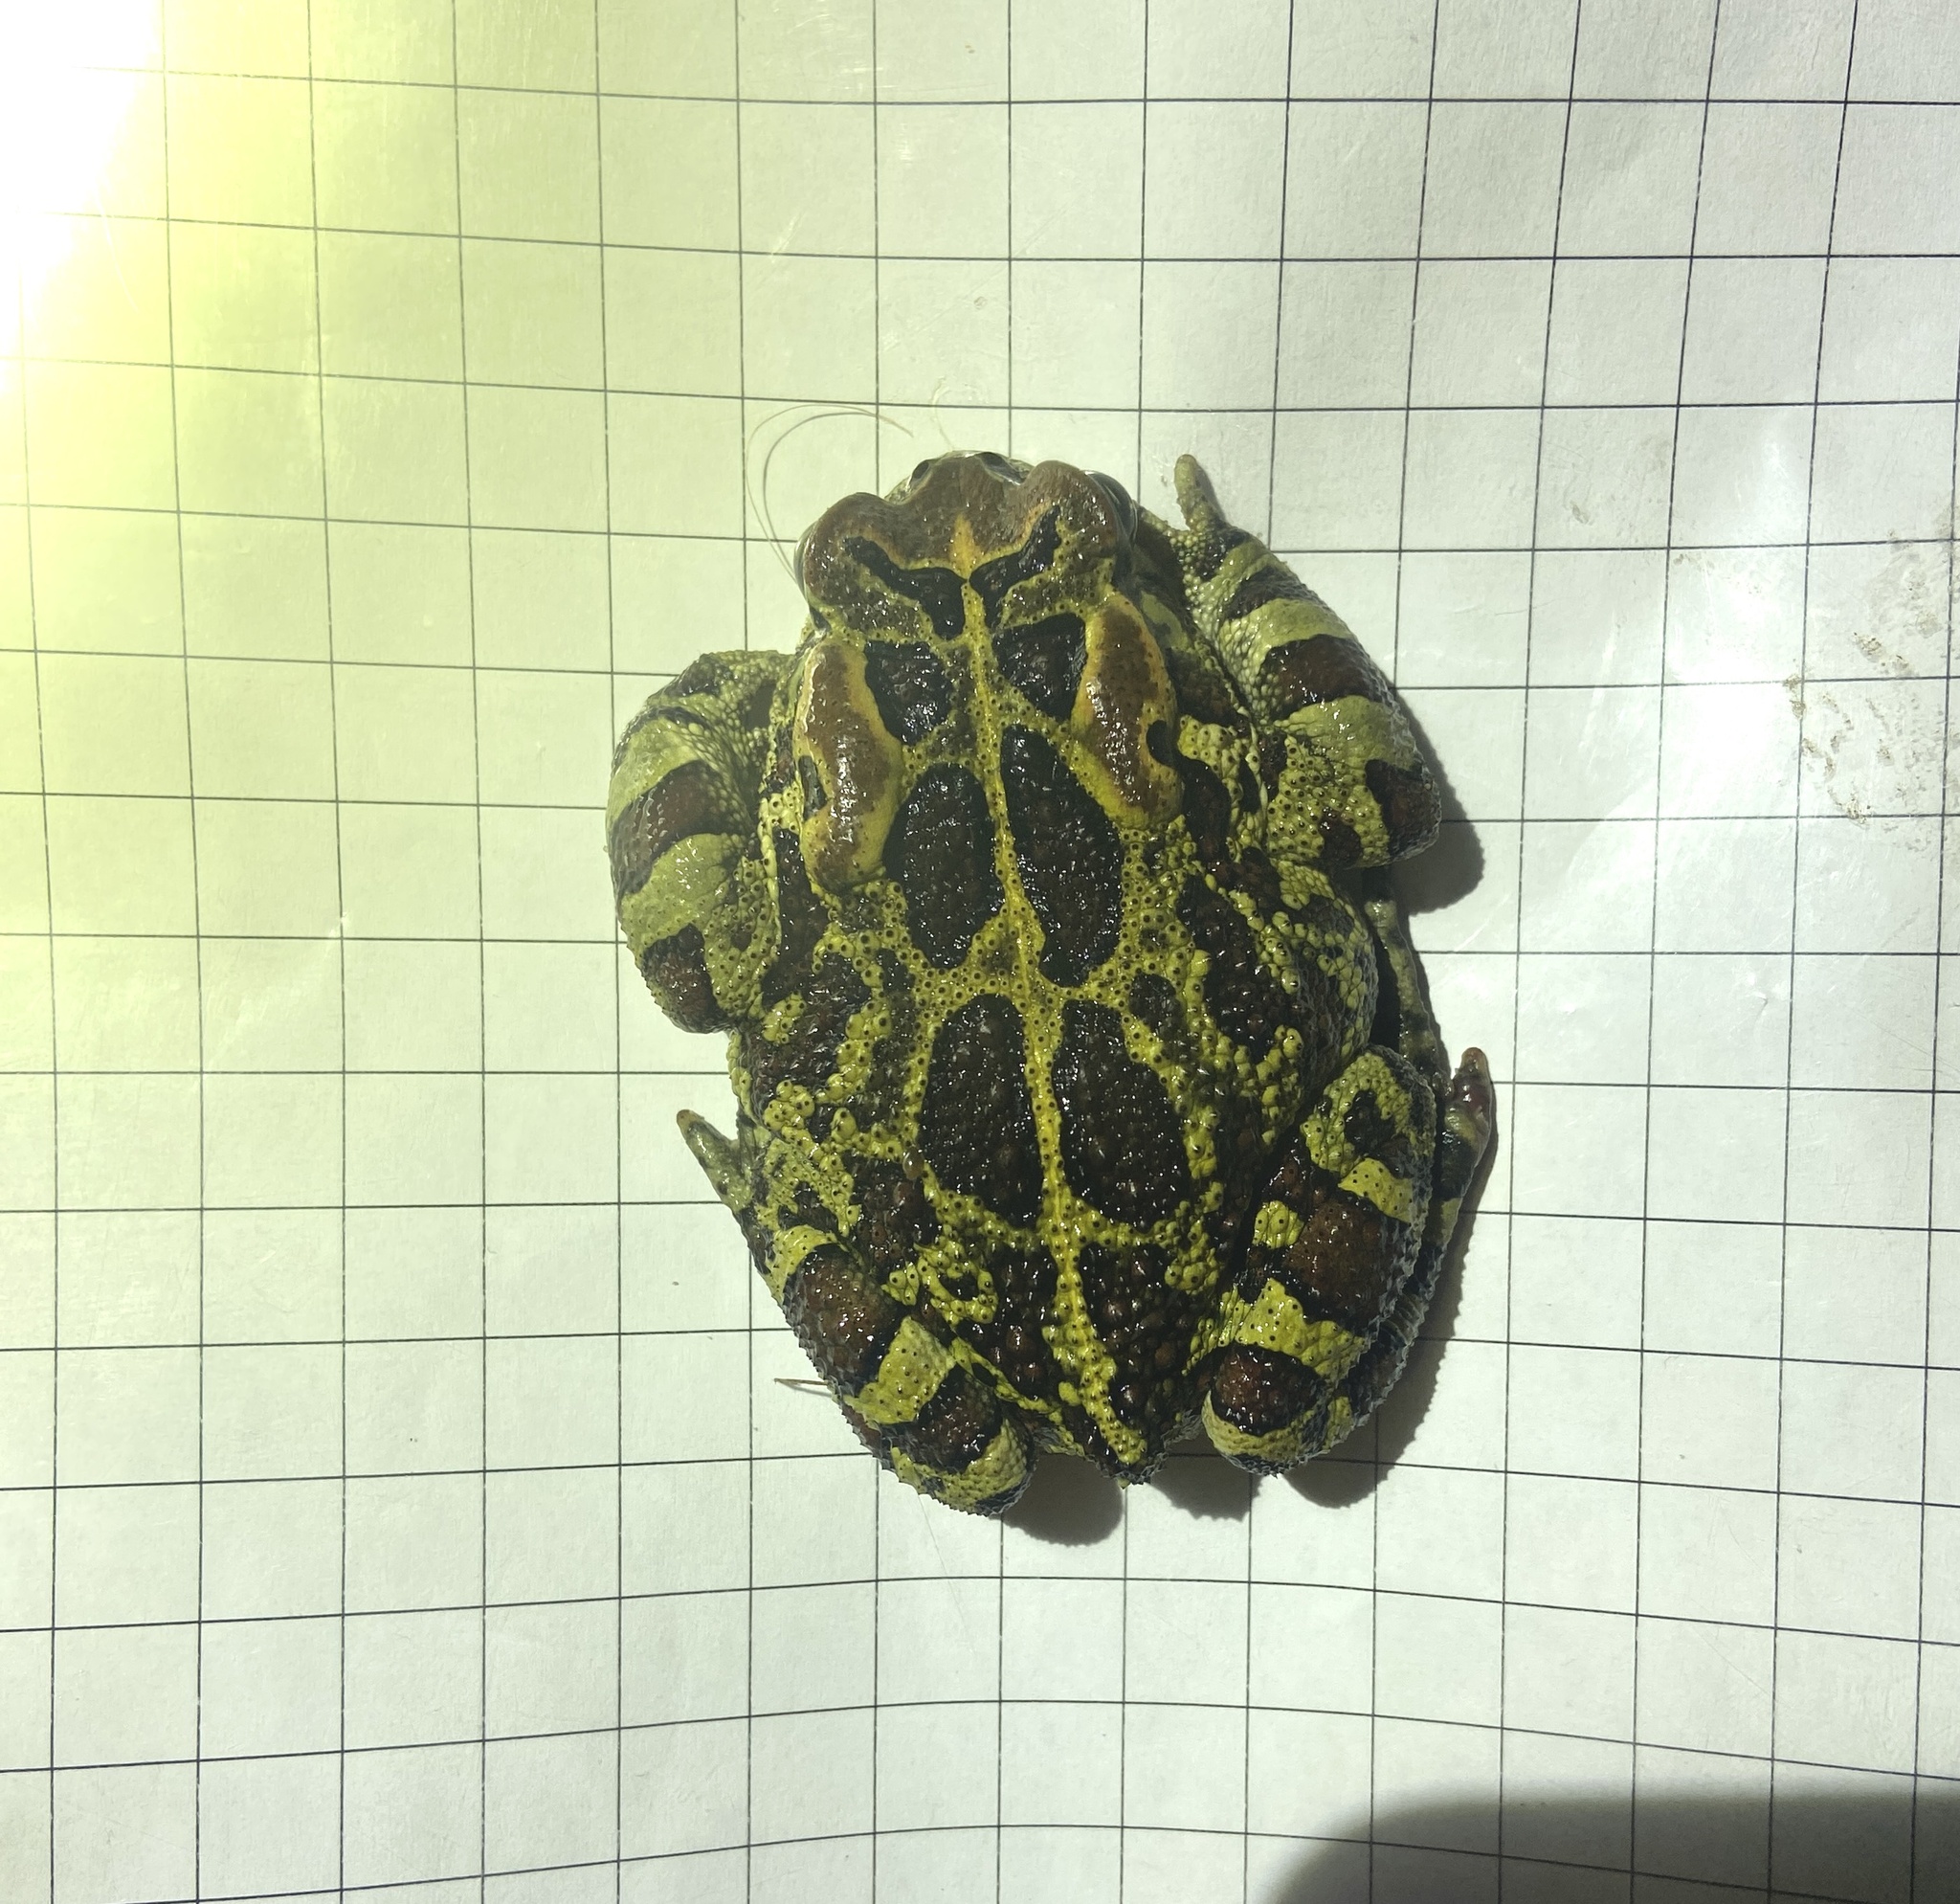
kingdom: Animalia
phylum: Chordata
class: Amphibia
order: Anura
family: Bufonidae
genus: Sclerophrys
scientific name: Sclerophrys pantherina
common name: Panther toad
